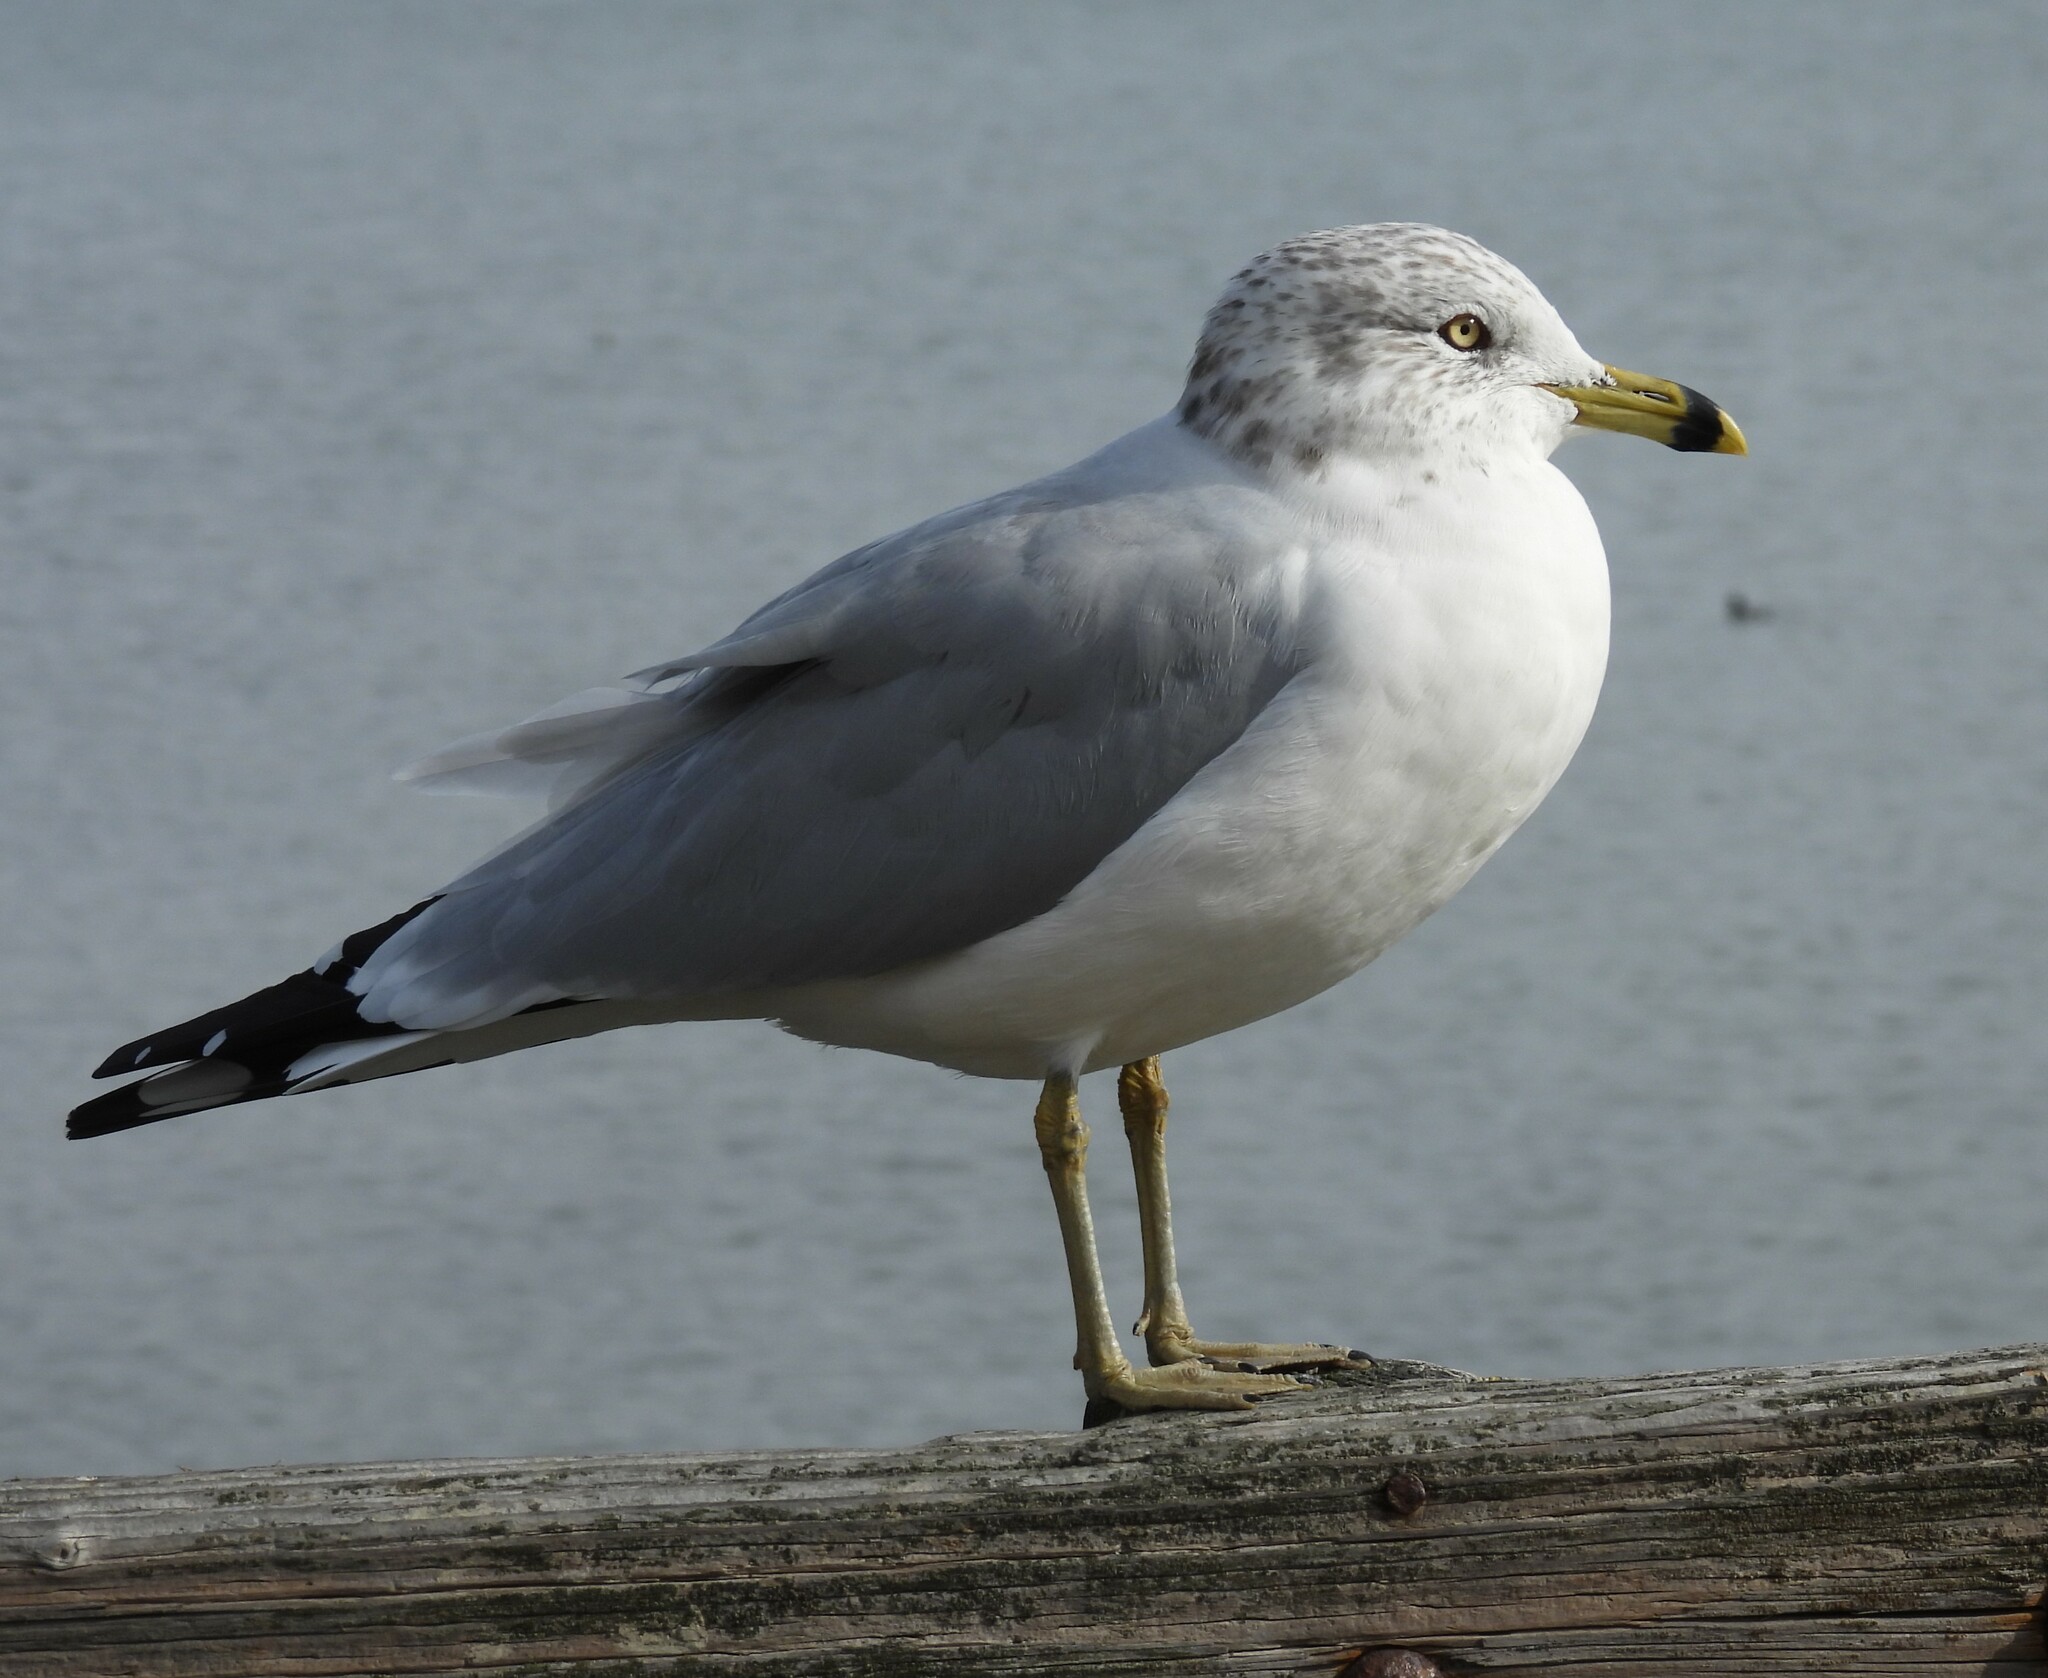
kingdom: Animalia
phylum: Chordata
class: Aves
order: Charadriiformes
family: Laridae
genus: Larus
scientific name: Larus delawarensis
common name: Ring-billed gull
